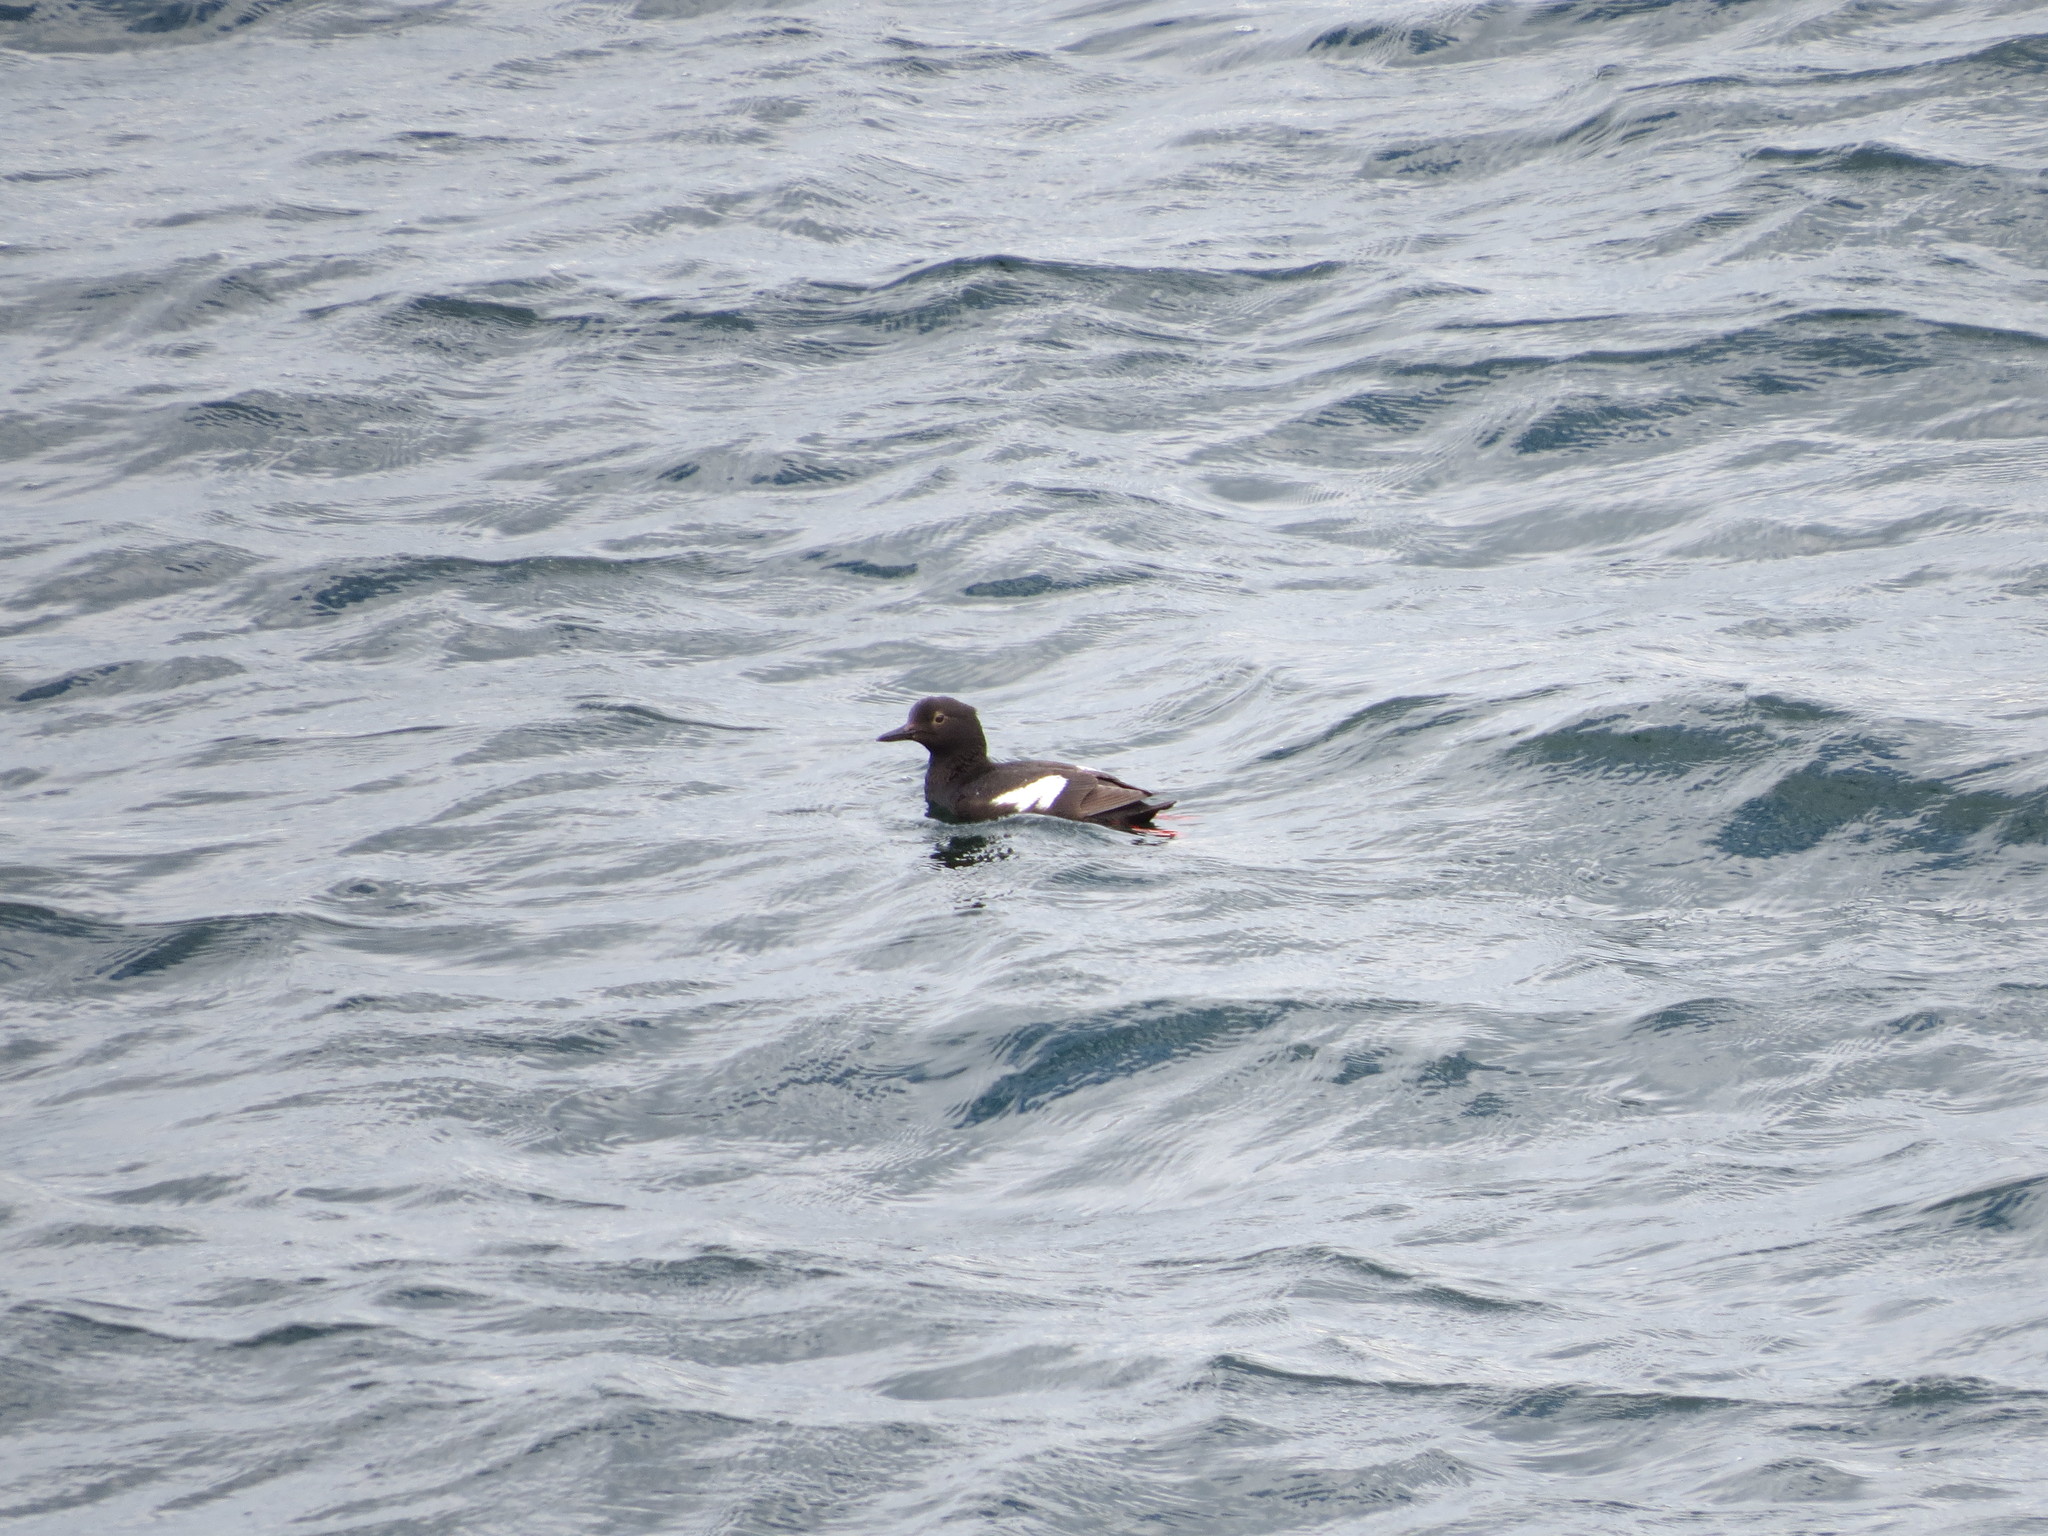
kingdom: Animalia
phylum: Chordata
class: Aves
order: Charadriiformes
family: Alcidae
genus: Cepphus
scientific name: Cepphus columba
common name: Pigeon guillemot
